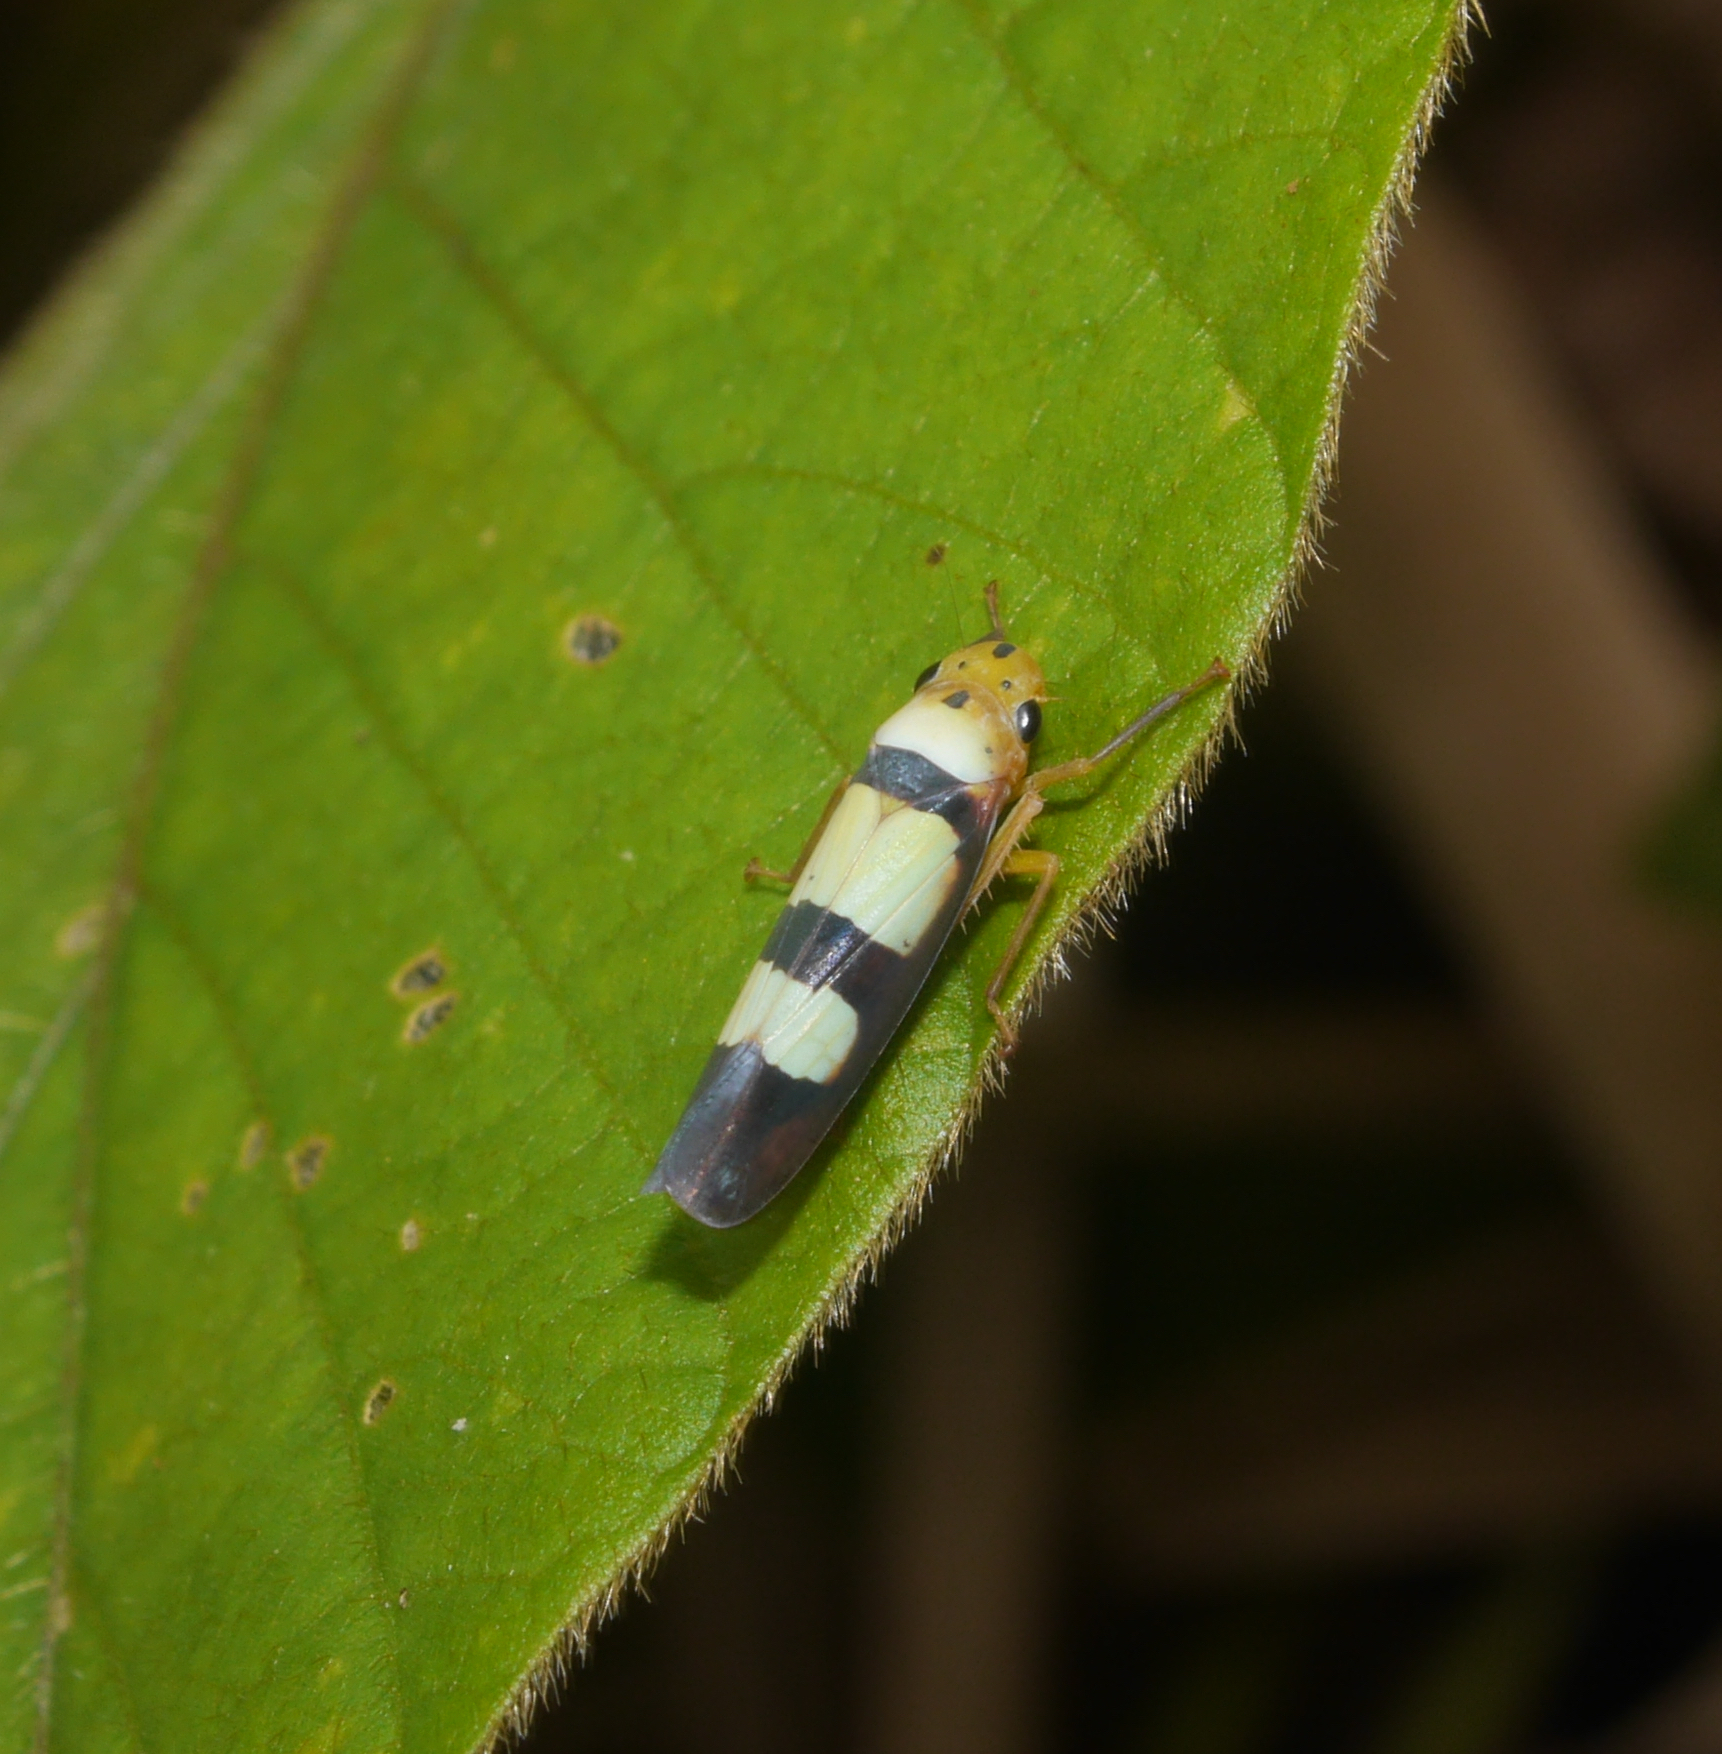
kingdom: Animalia
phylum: Arthropoda
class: Insecta
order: Hemiptera
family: Cicadellidae
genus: Tettisama
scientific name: Tettisama bisellata
